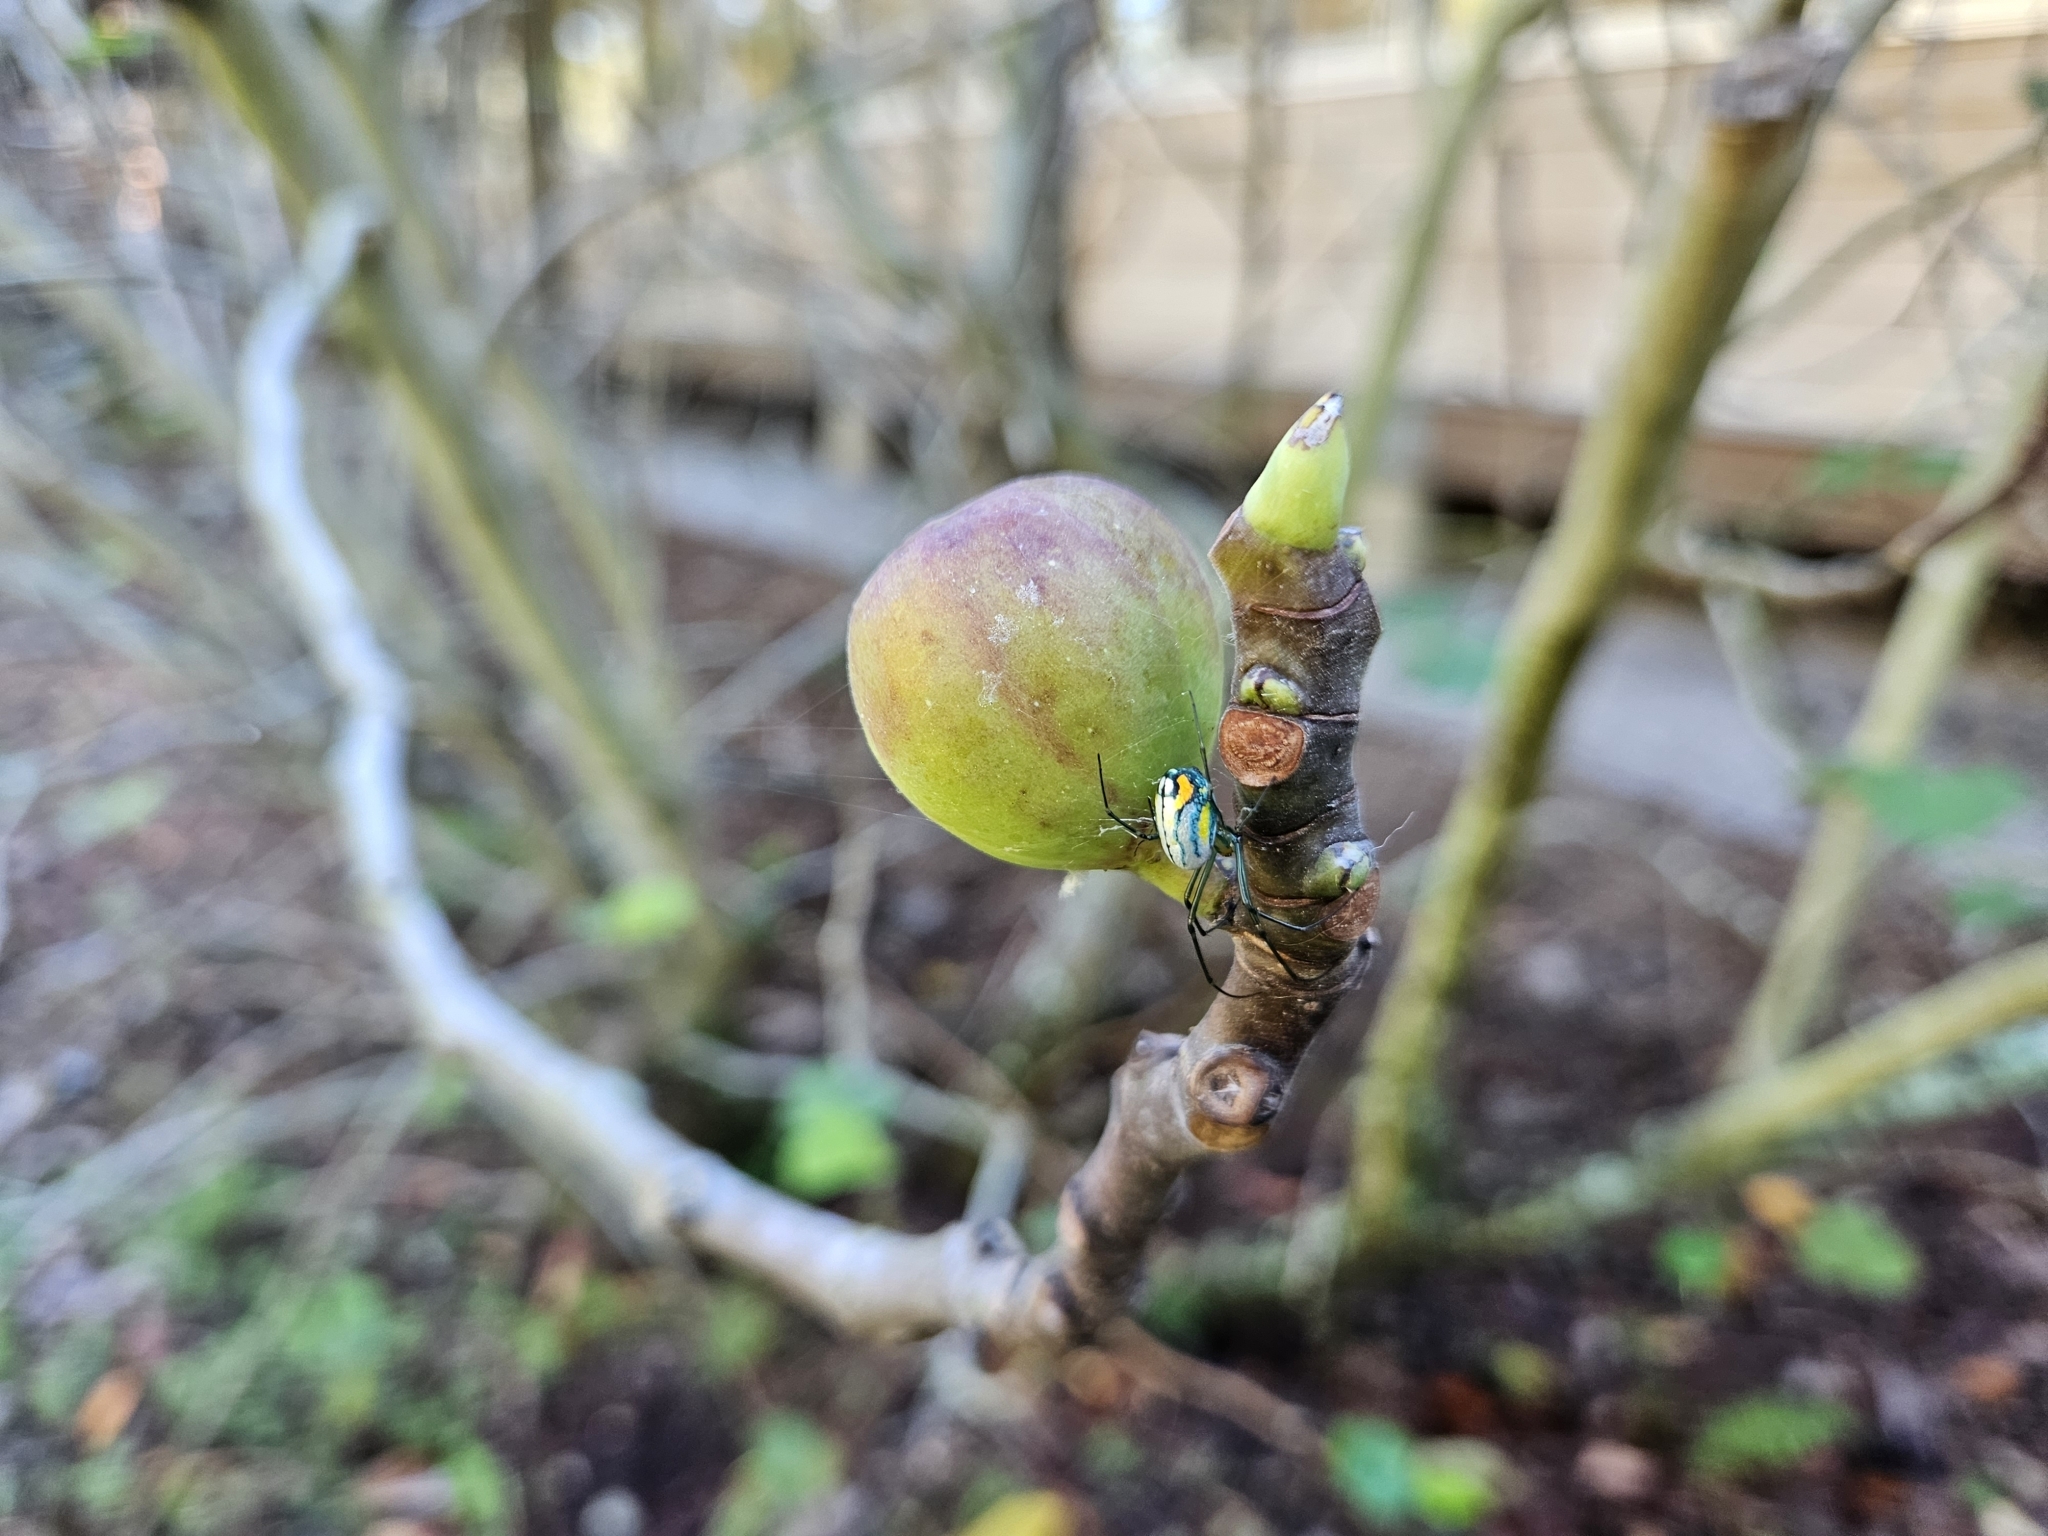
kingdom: Animalia
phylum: Arthropoda
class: Arachnida
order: Araneae
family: Tetragnathidae
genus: Leucauge
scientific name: Leucauge argyrobapta
